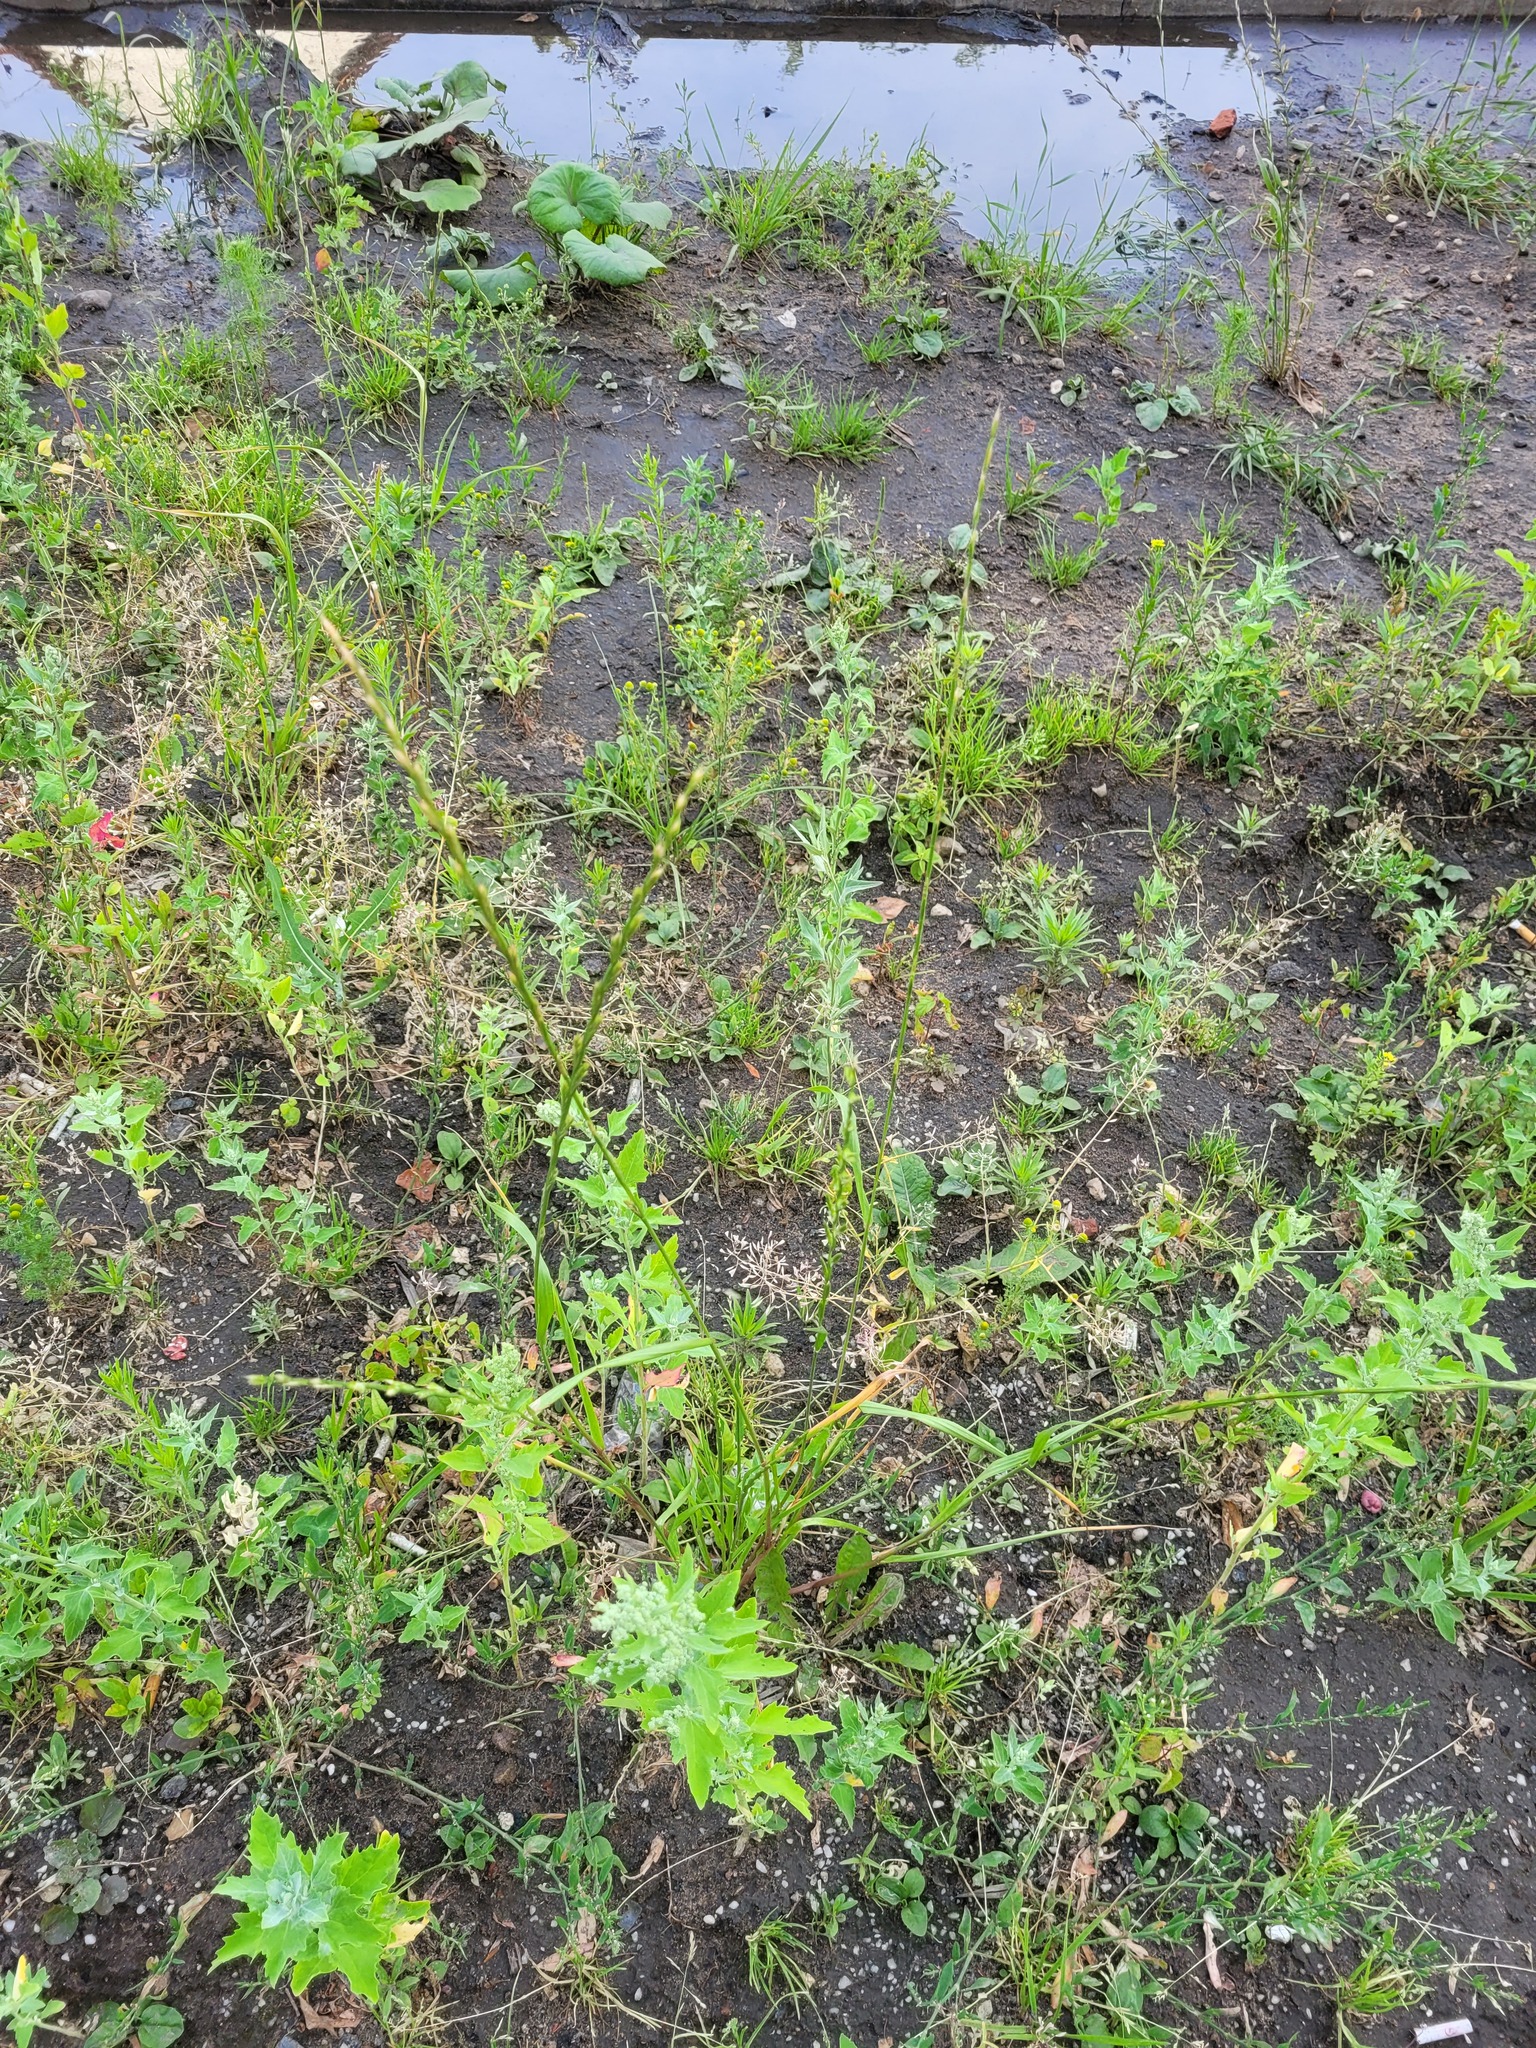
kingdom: Plantae
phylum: Tracheophyta
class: Liliopsida
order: Poales
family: Poaceae
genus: Lolium
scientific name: Lolium perenne
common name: Perennial ryegrass
